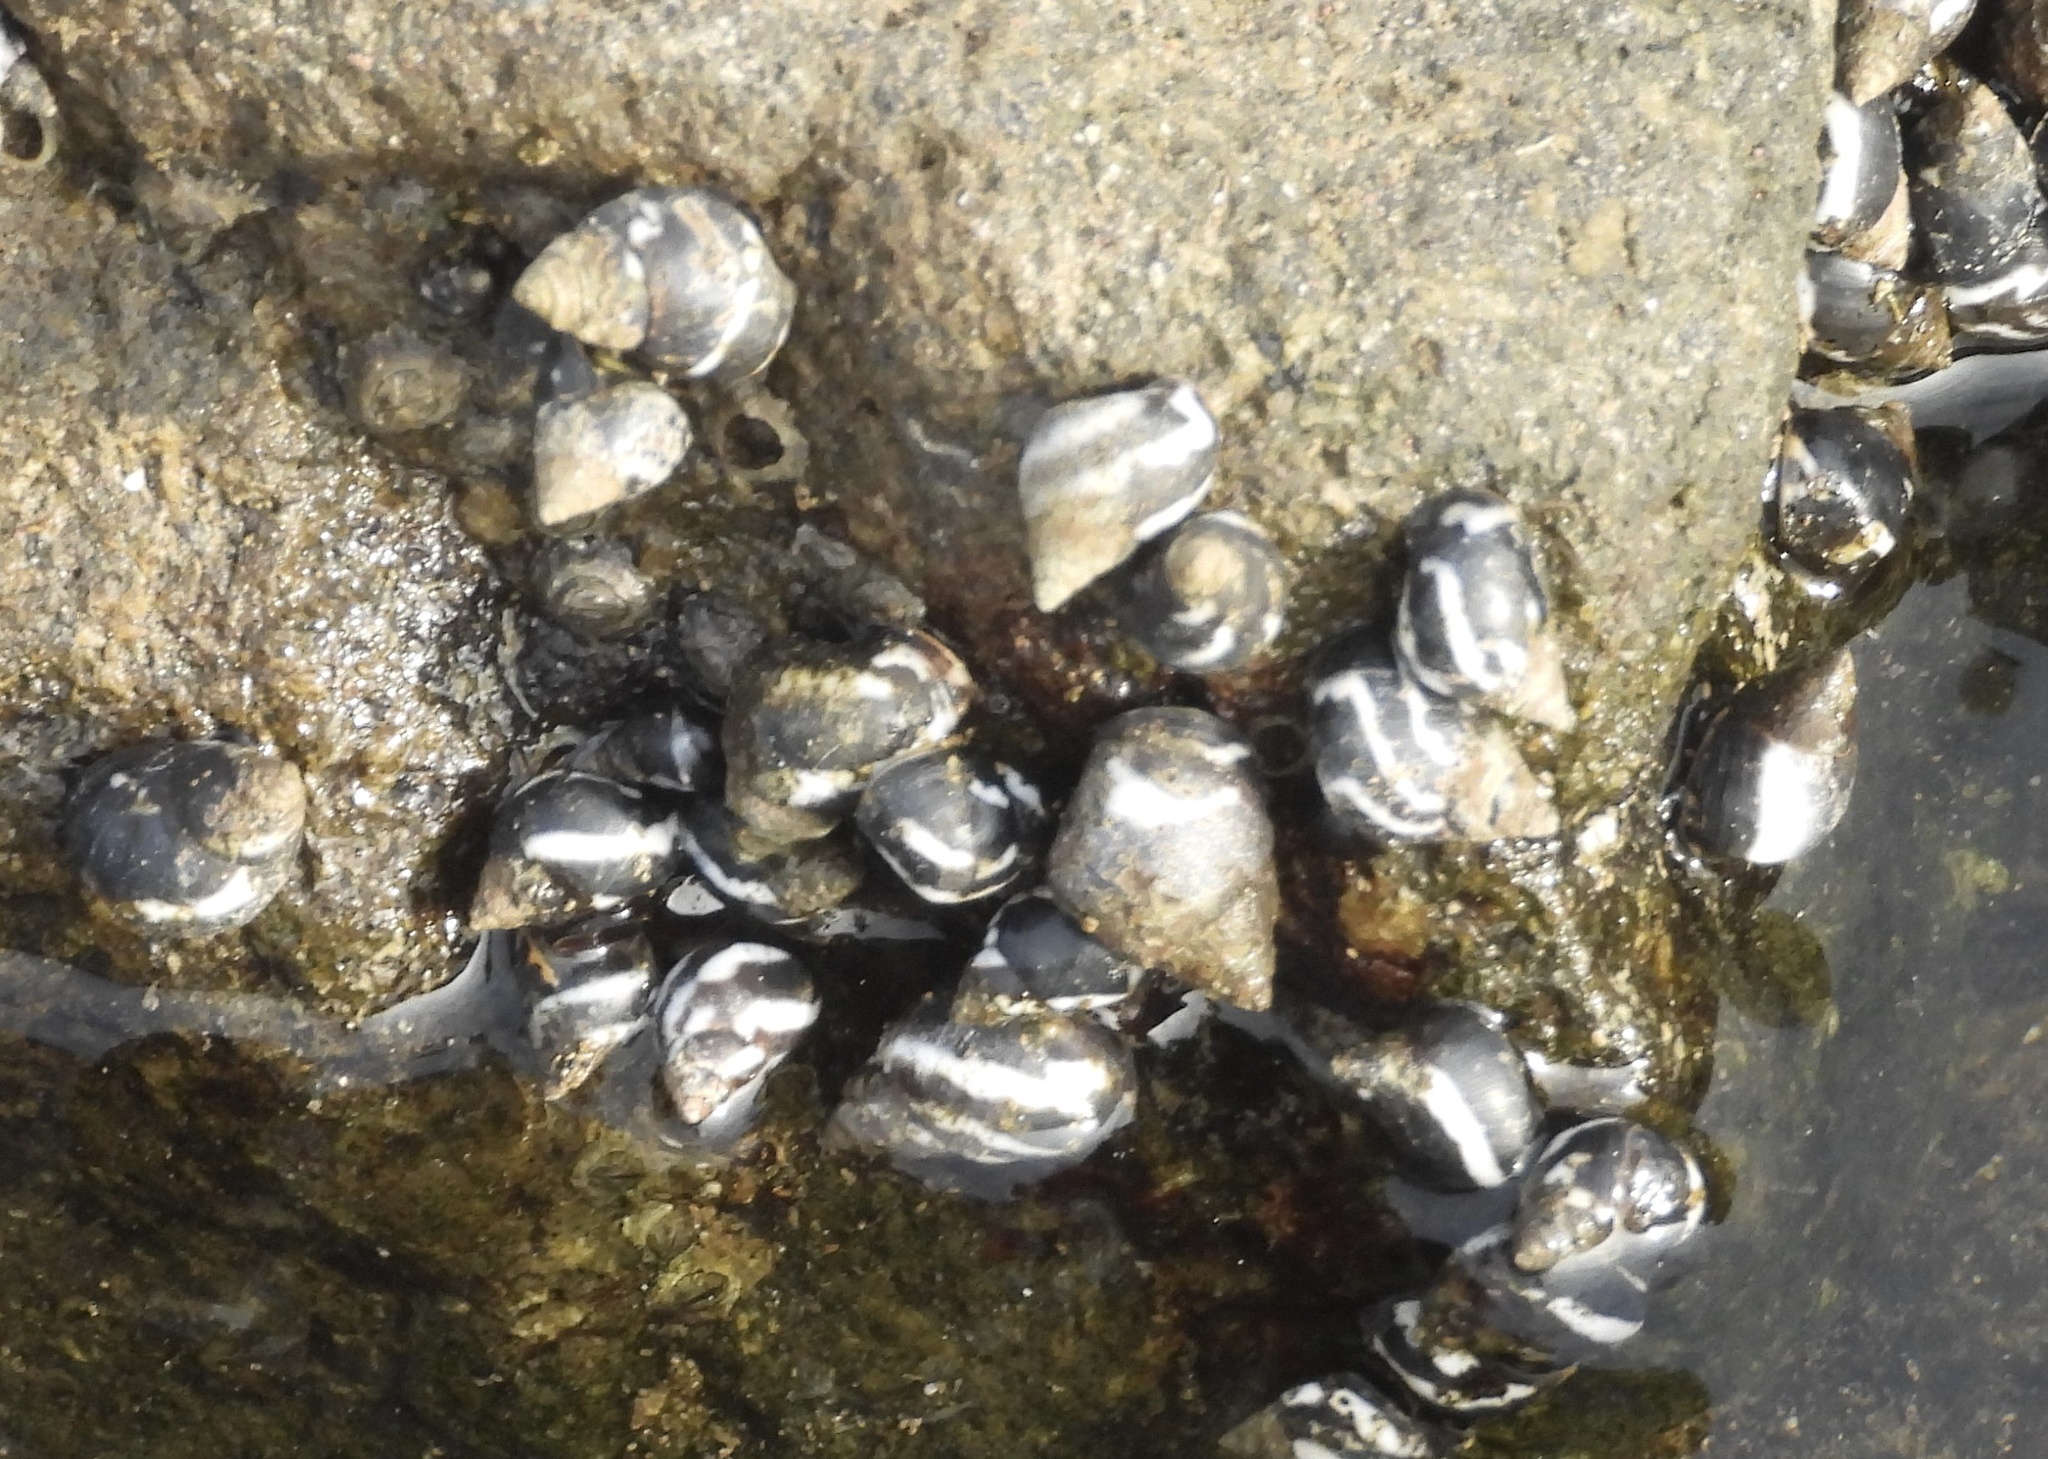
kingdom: Animalia
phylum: Mollusca
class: Gastropoda
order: Littorinimorpha
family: Littorinidae
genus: Echinolittorina
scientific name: Echinolittorina peruviana
